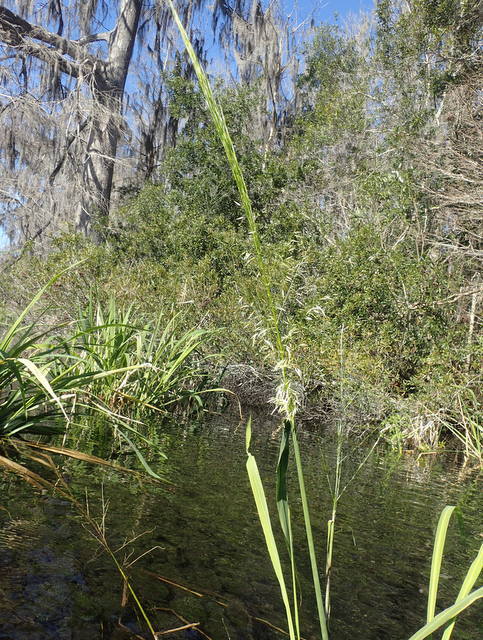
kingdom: Plantae
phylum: Tracheophyta
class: Liliopsida
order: Poales
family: Poaceae
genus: Zizania
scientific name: Zizania aquatica
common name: Annual wildrice
